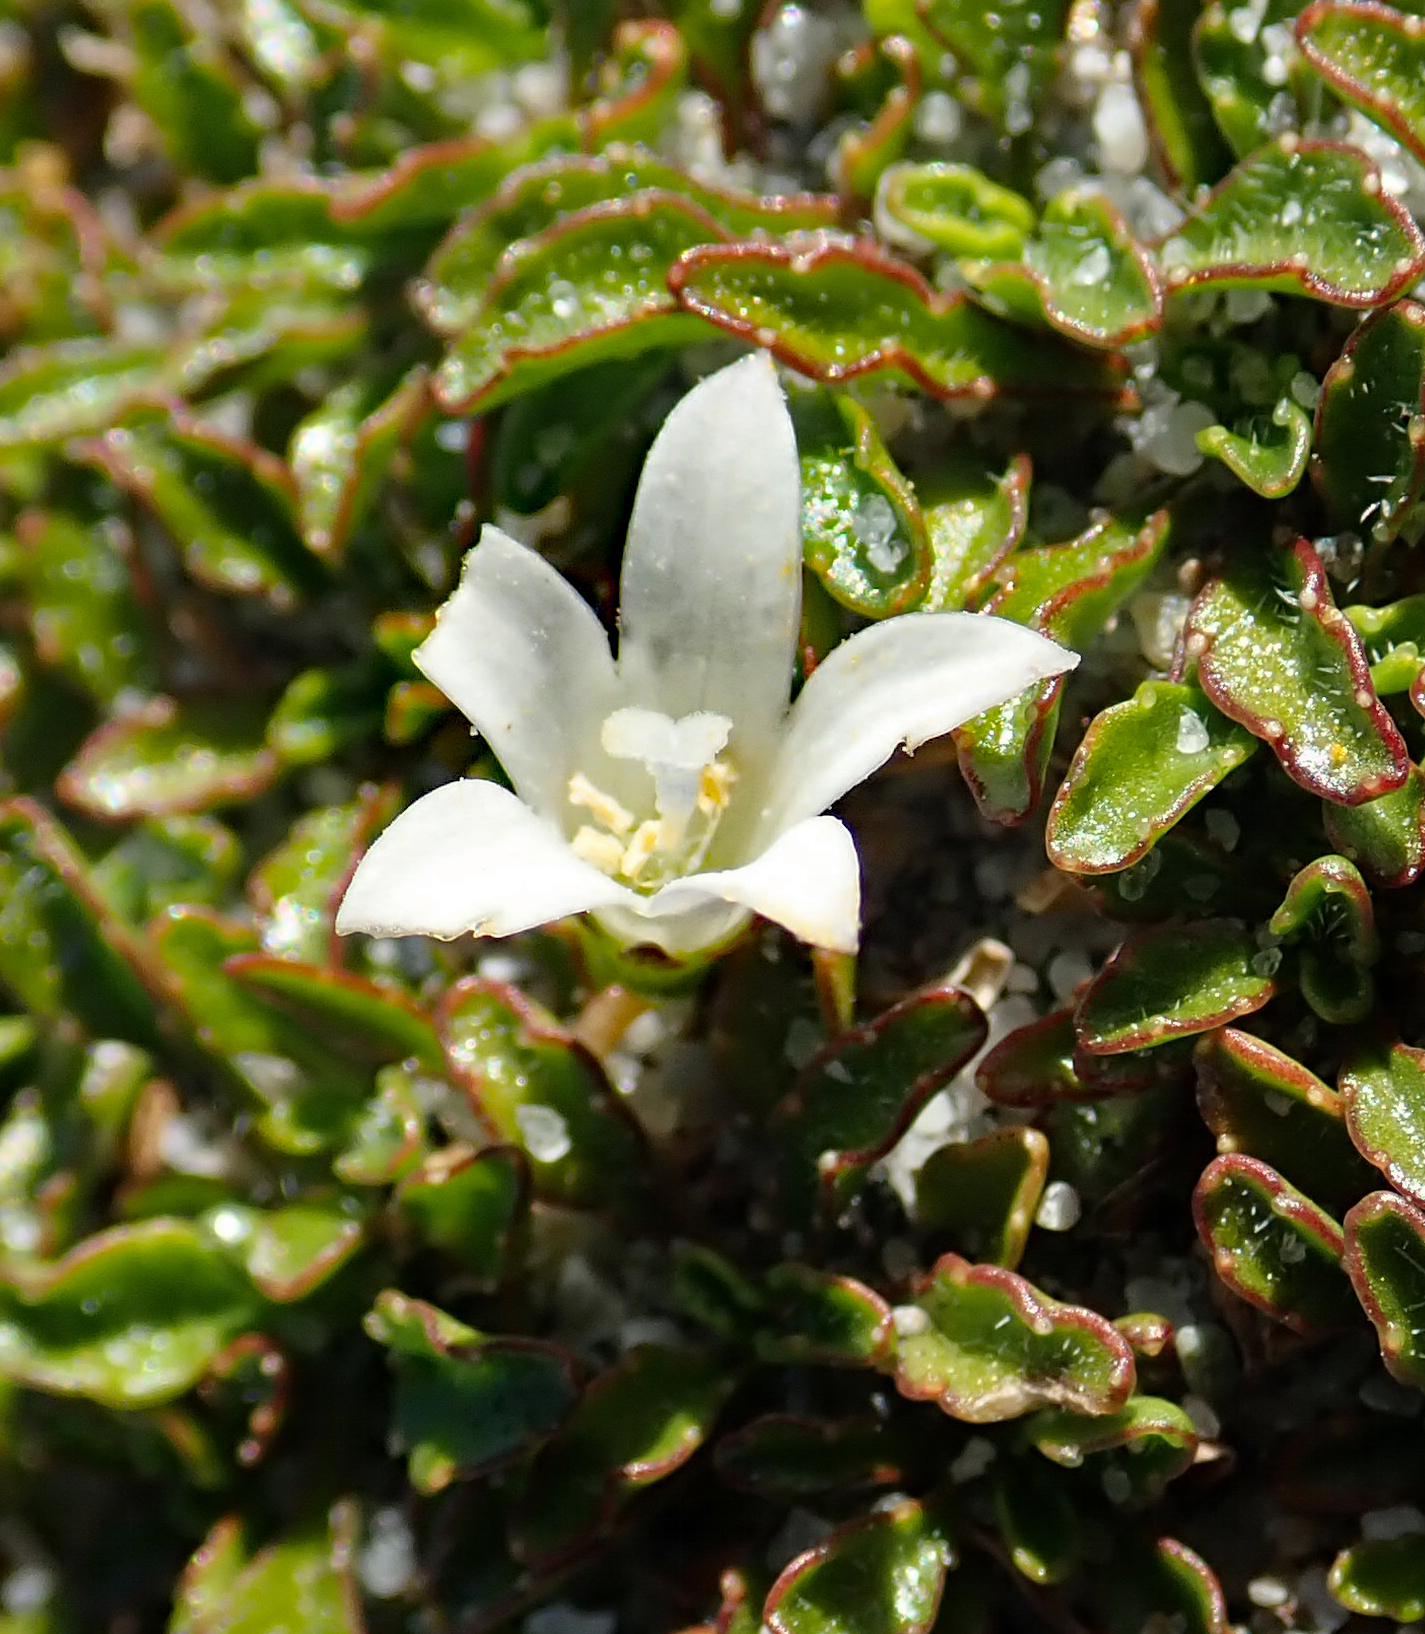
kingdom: Plantae
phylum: Tracheophyta
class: Magnoliopsida
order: Asterales
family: Campanulaceae
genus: Wahlenbergia
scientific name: Wahlenbergia congesta
